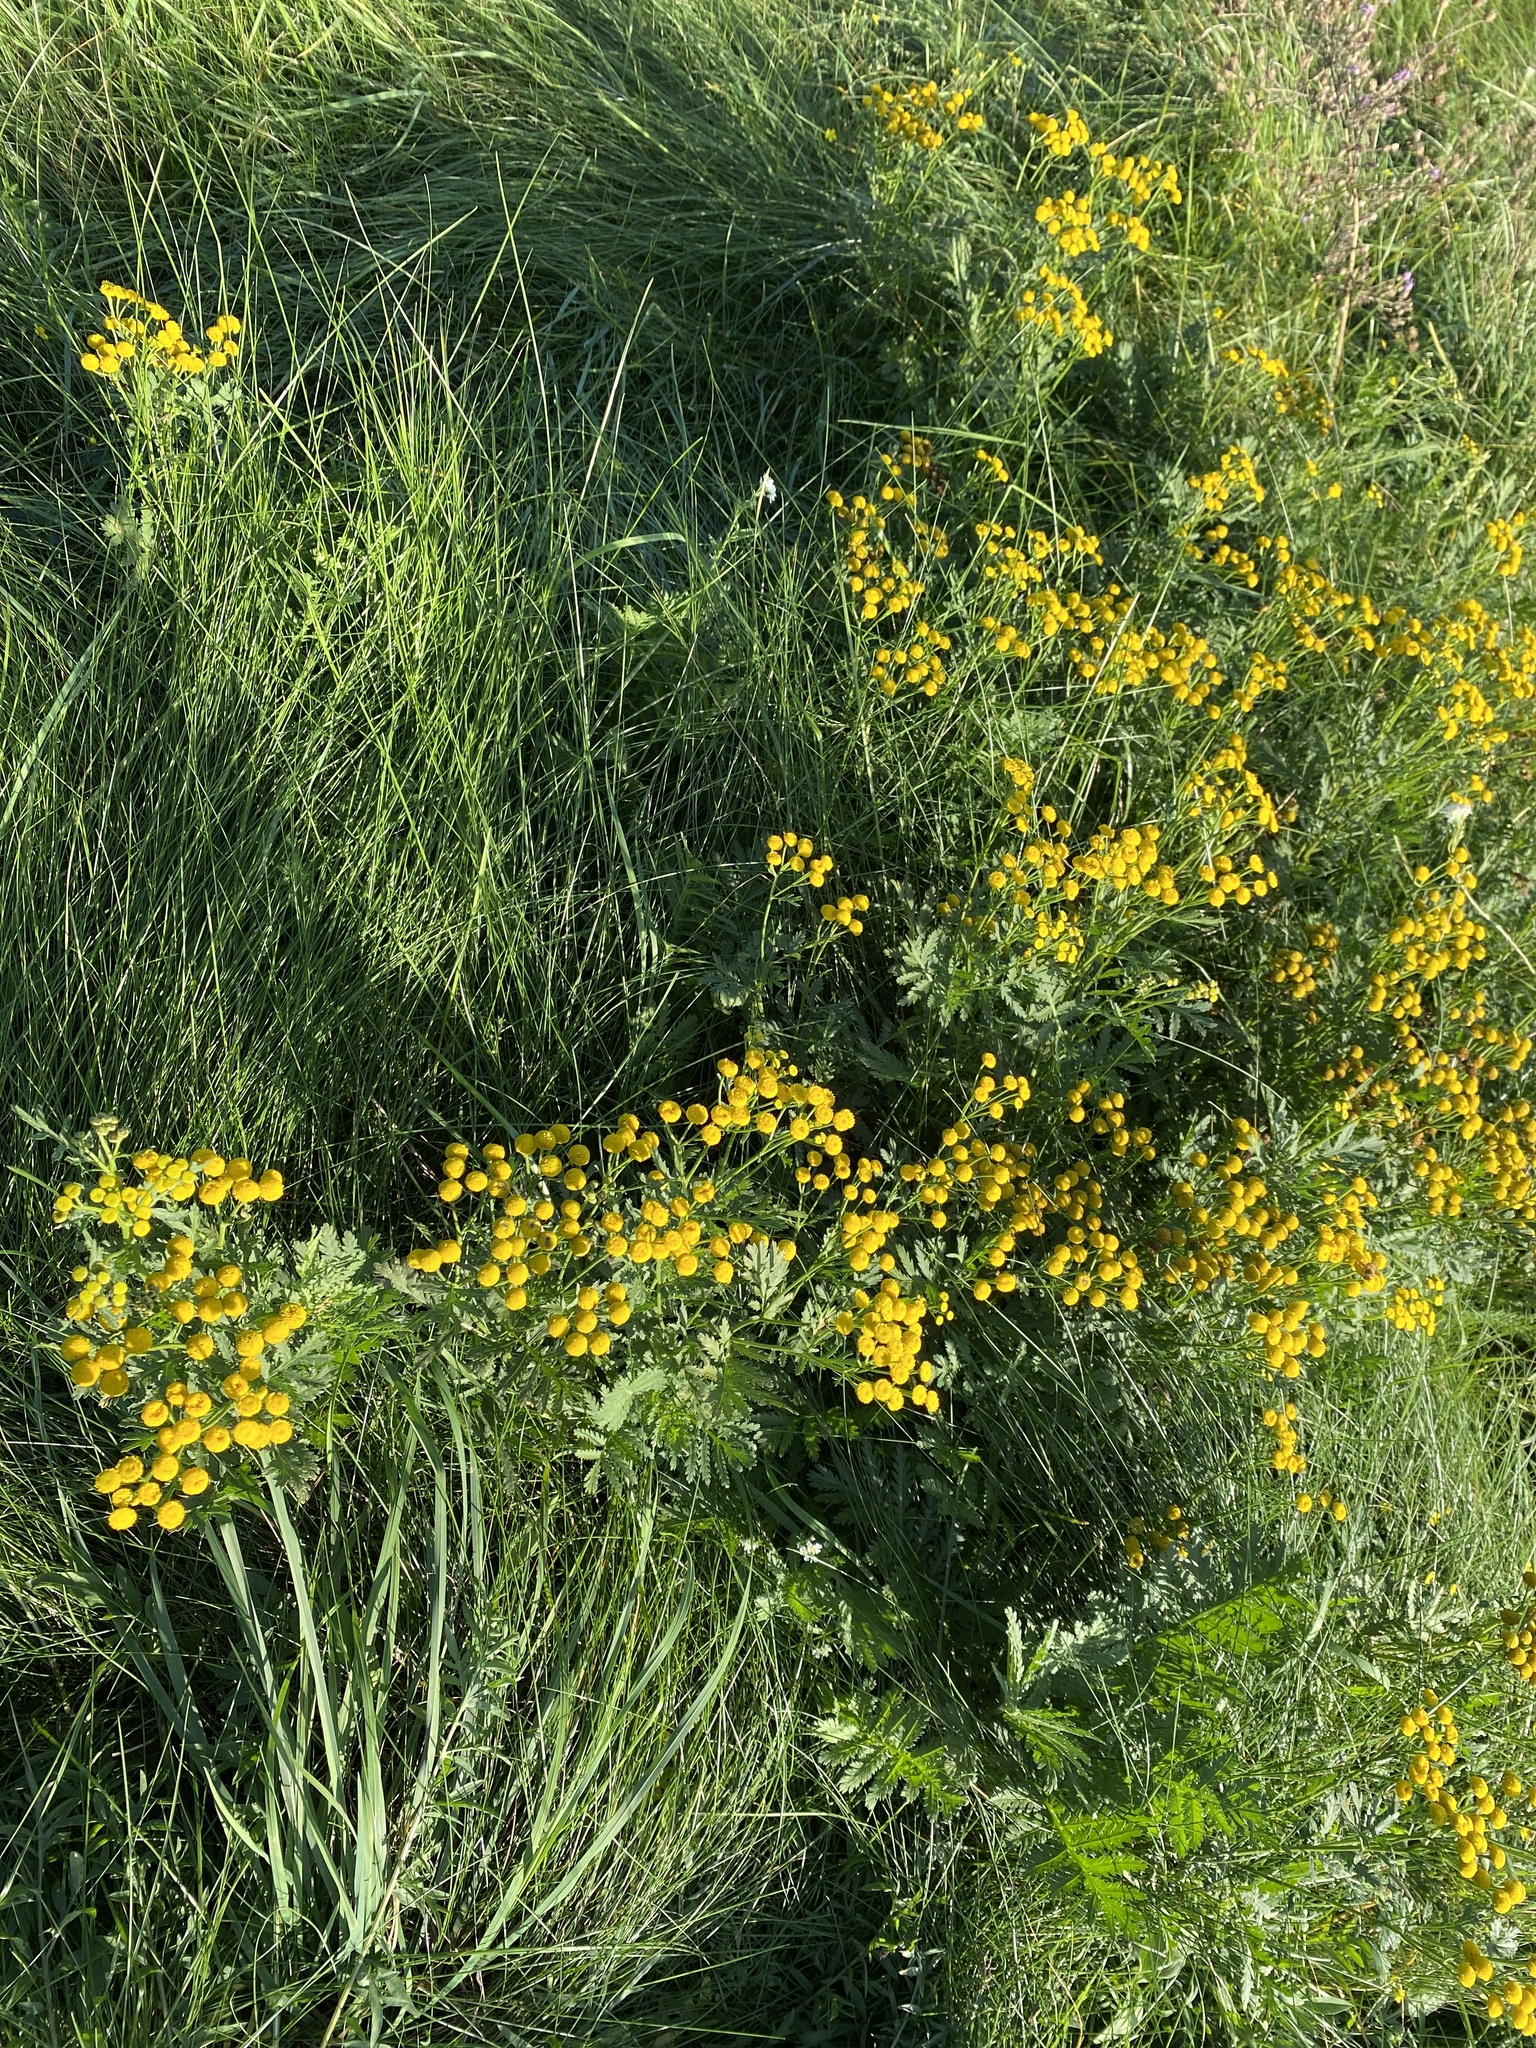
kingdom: Plantae
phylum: Tracheophyta
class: Magnoliopsida
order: Asterales
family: Asteraceae
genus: Tanacetum
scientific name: Tanacetum vulgare
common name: Common tansy
